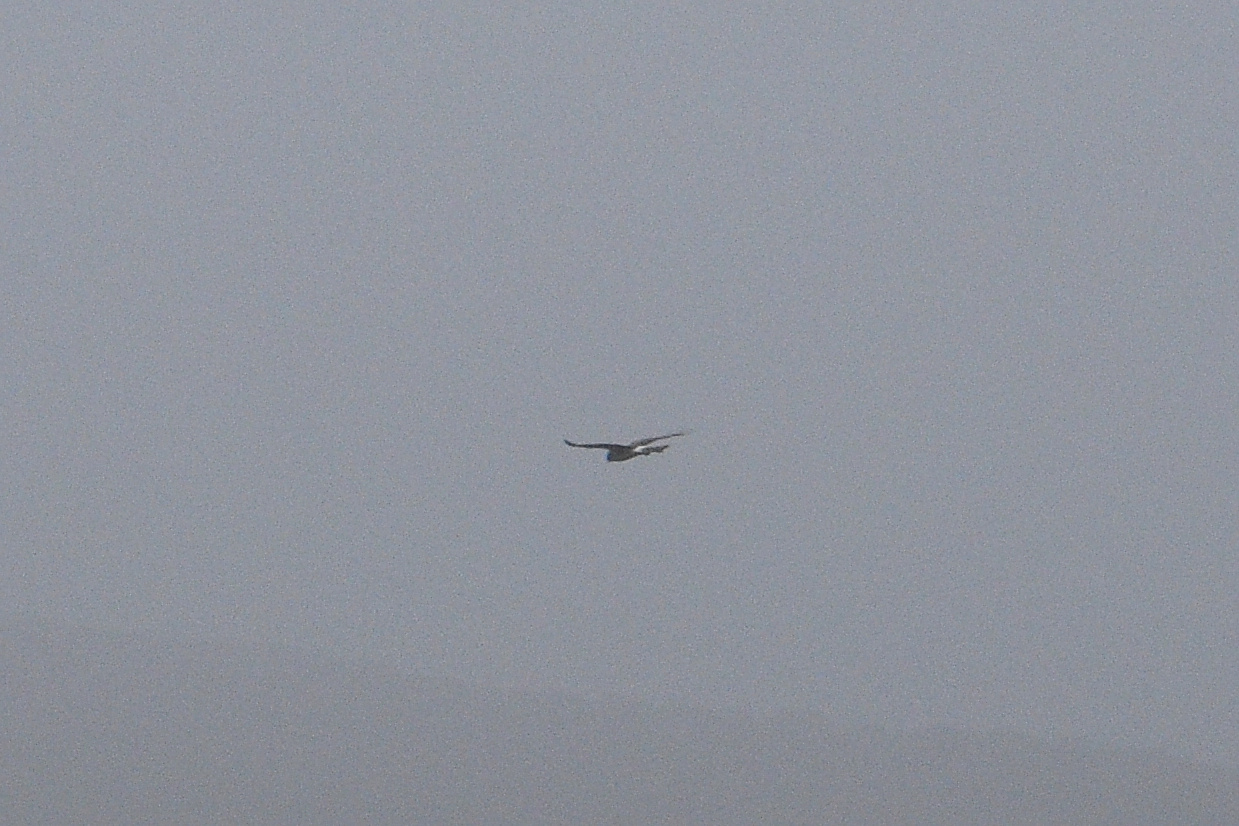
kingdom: Animalia
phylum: Chordata
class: Aves
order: Accipitriformes
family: Accipitridae
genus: Circus
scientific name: Circus cyaneus
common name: Hen harrier
